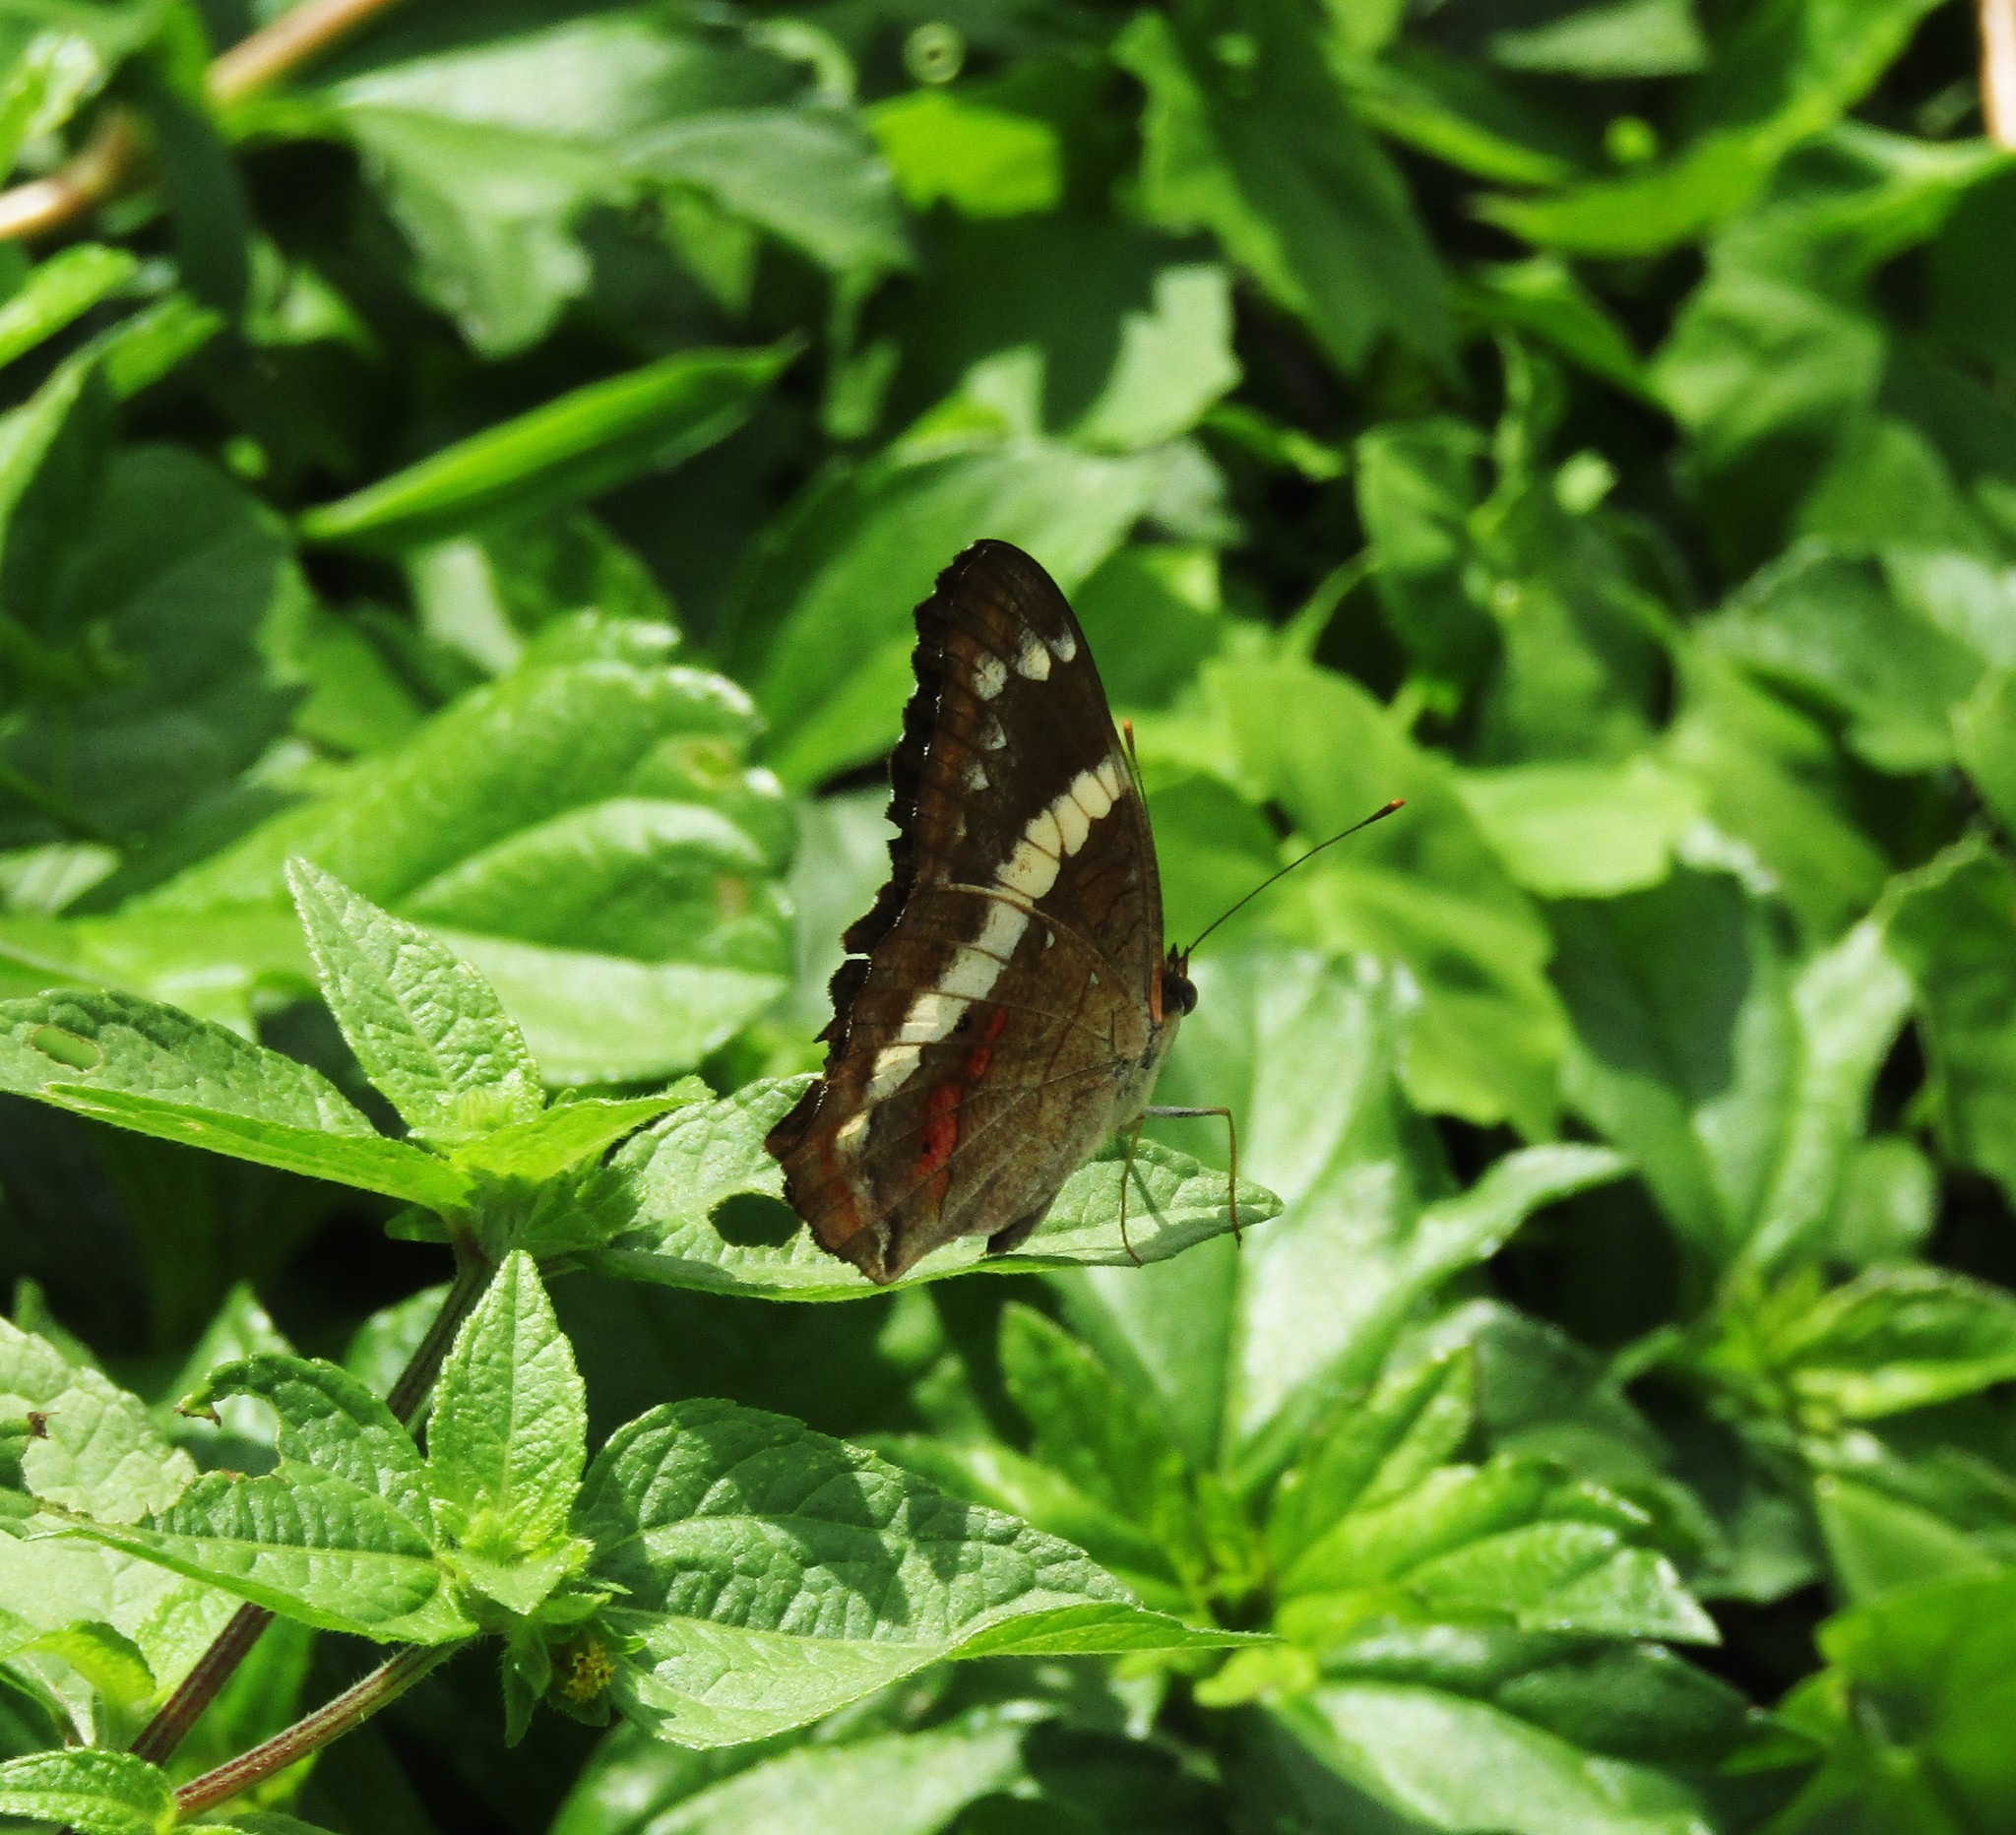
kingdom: Animalia
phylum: Arthropoda
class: Insecta
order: Lepidoptera
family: Nymphalidae
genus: Anartia
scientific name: Anartia fatima
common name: Banded peacock
